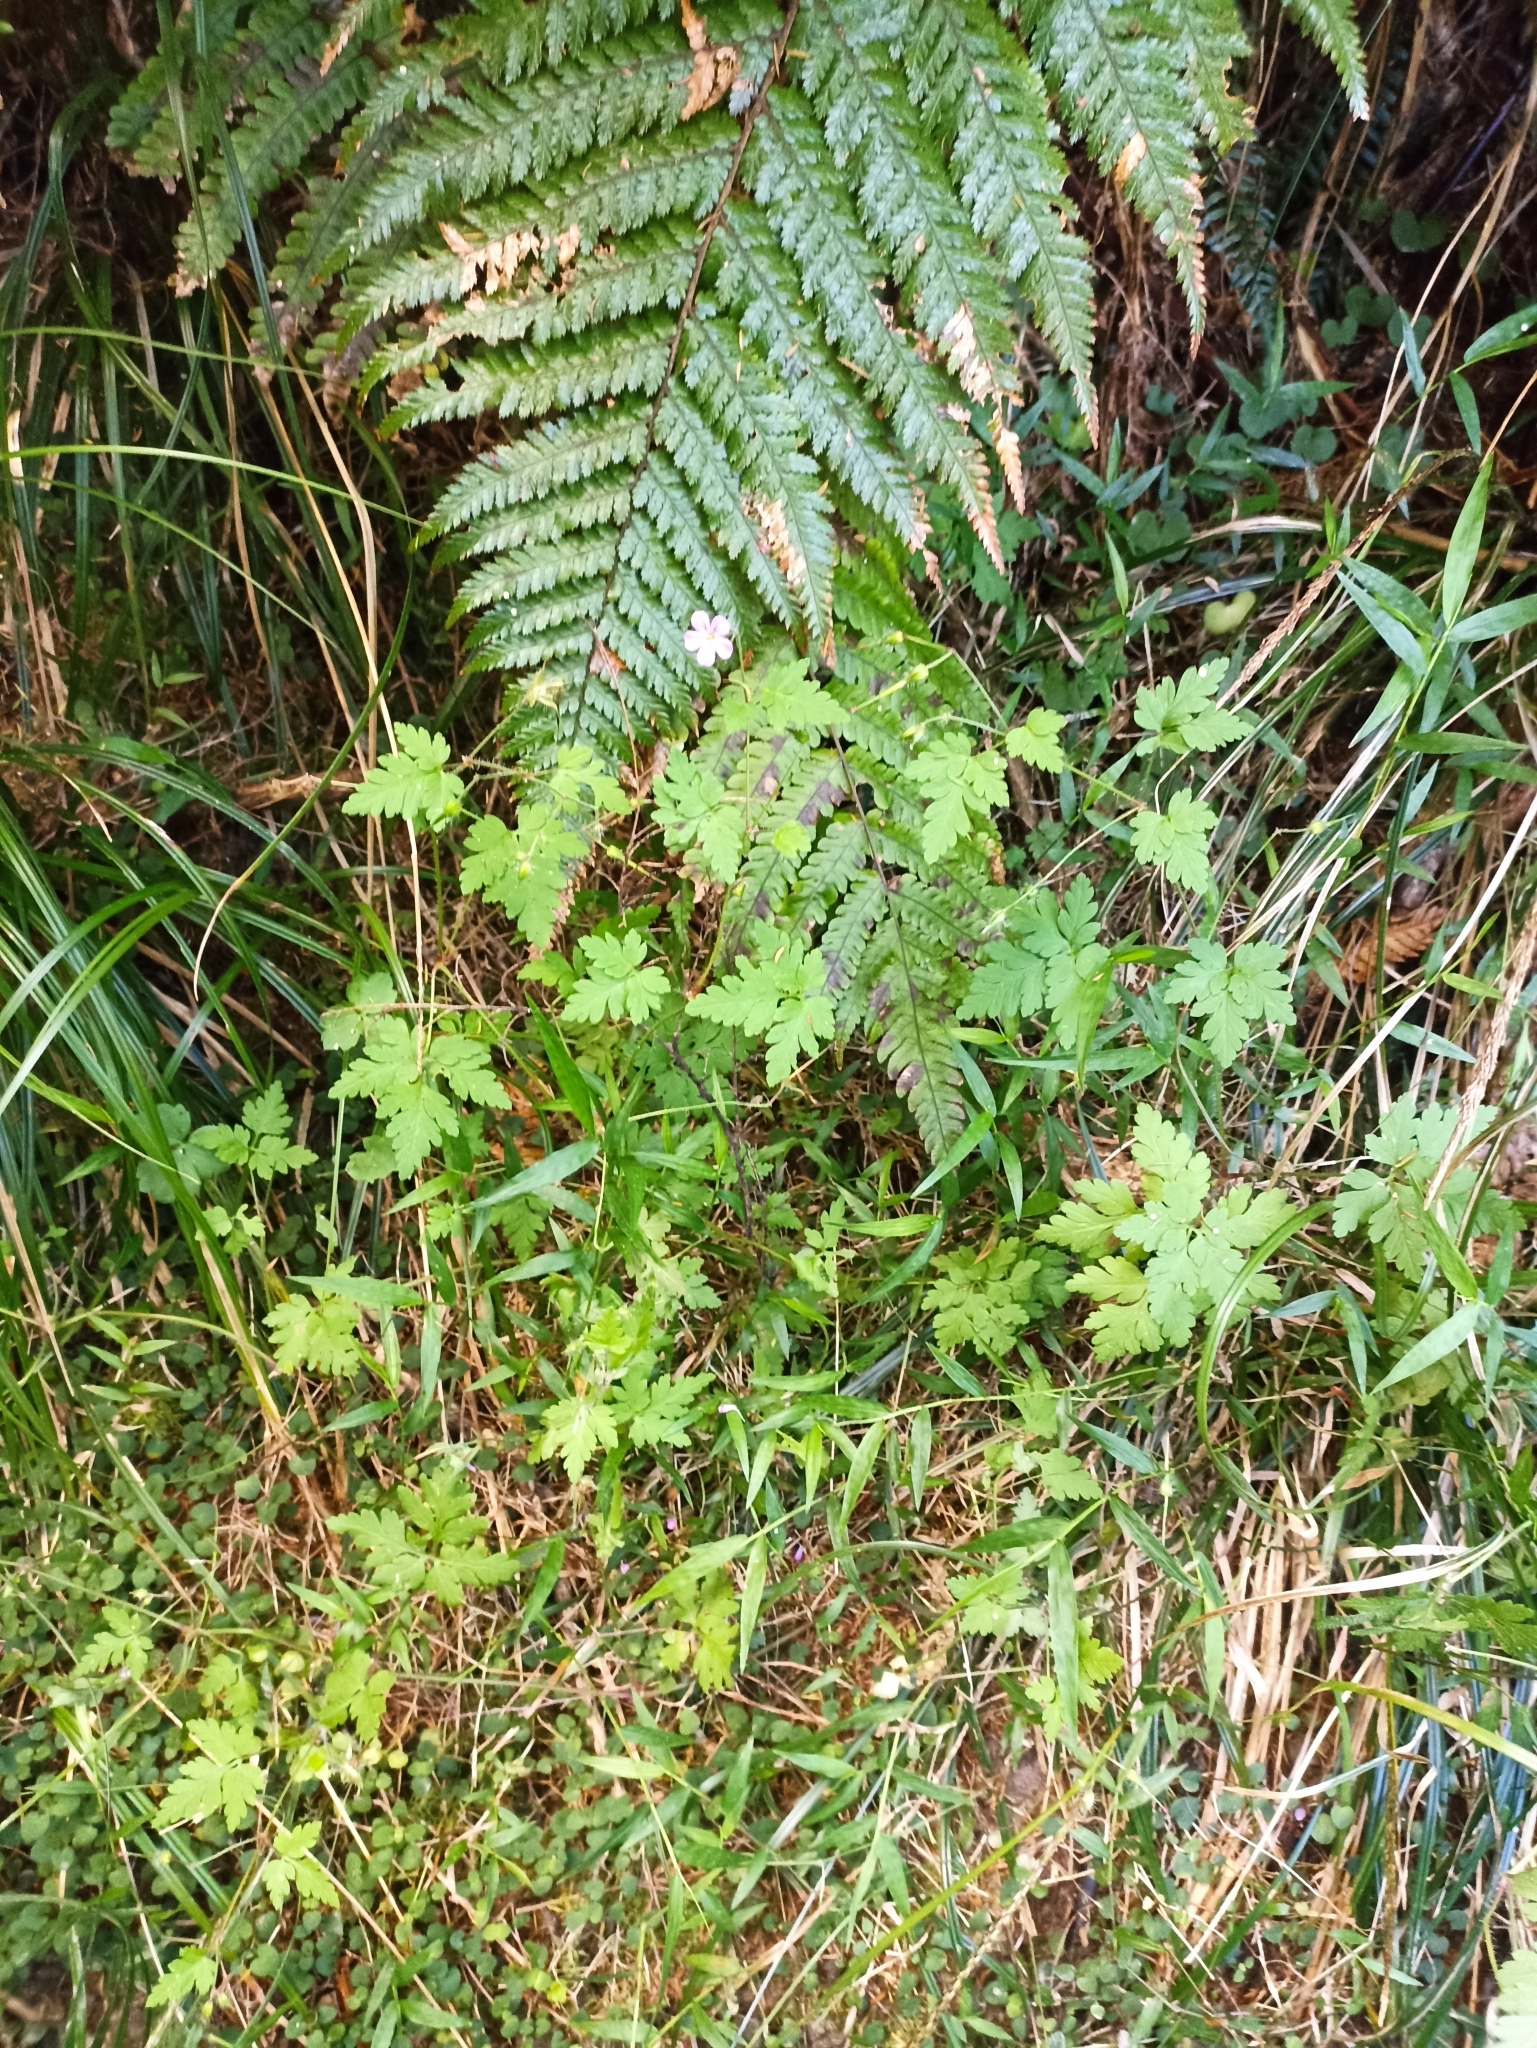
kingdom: Plantae
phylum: Tracheophyta
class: Magnoliopsida
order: Geraniales
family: Geraniaceae
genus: Geranium
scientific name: Geranium robertianum
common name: Herb-robert
